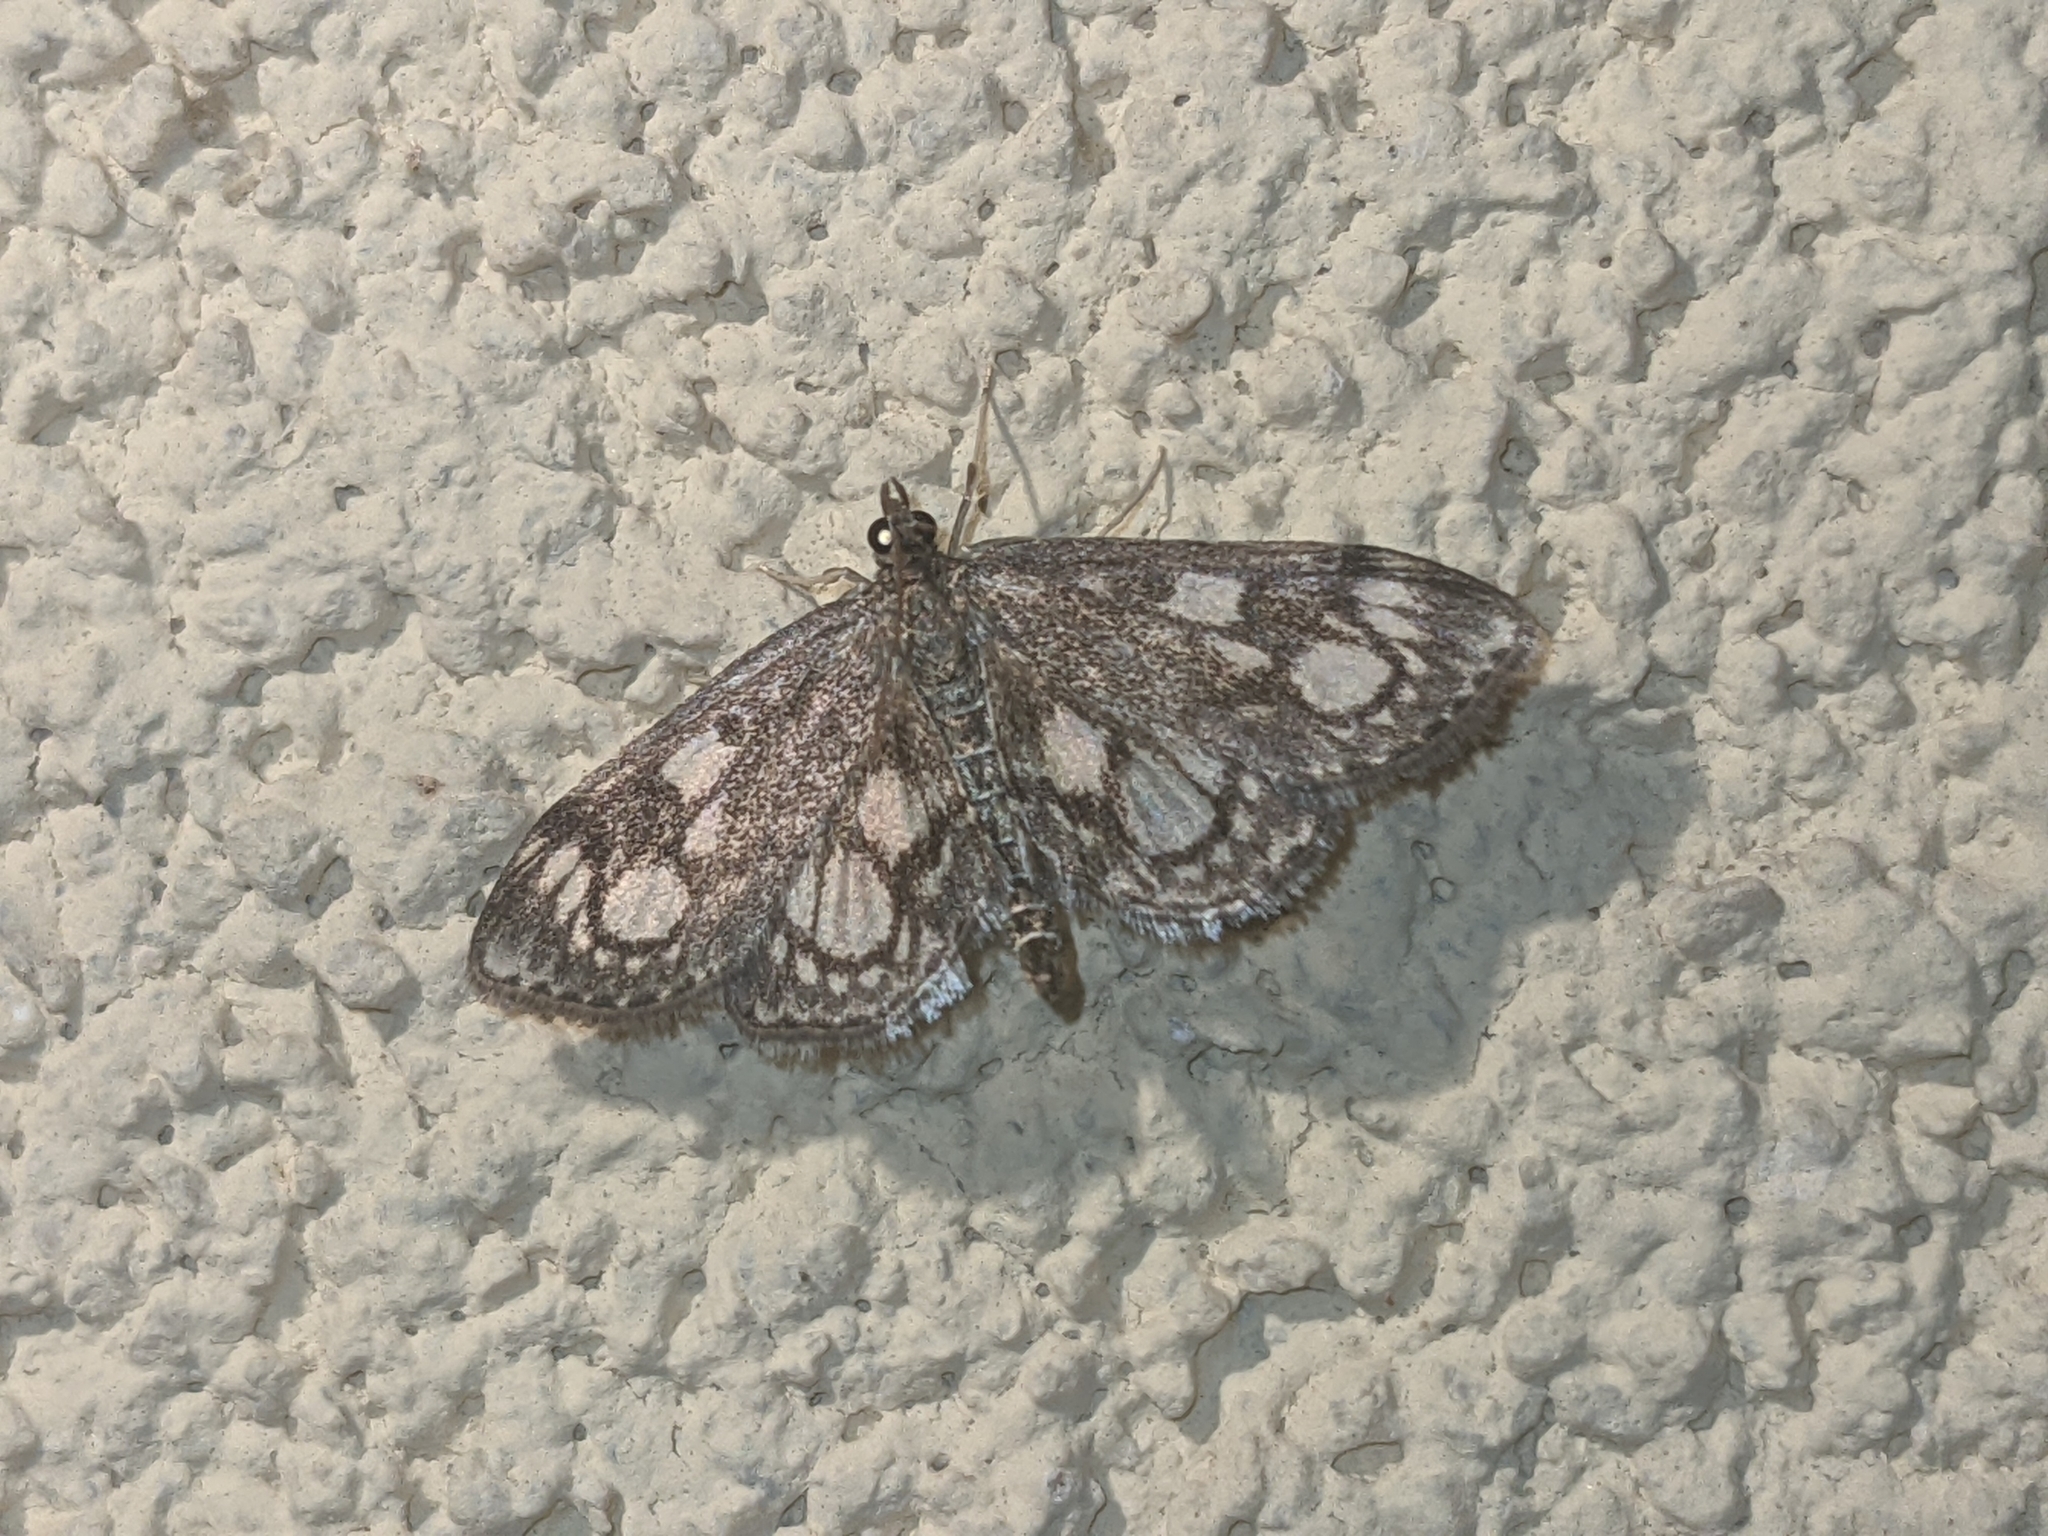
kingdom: Animalia
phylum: Arthropoda
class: Insecta
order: Lepidoptera
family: Crambidae
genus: Anania
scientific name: Anania coronata
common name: Elder pearl
